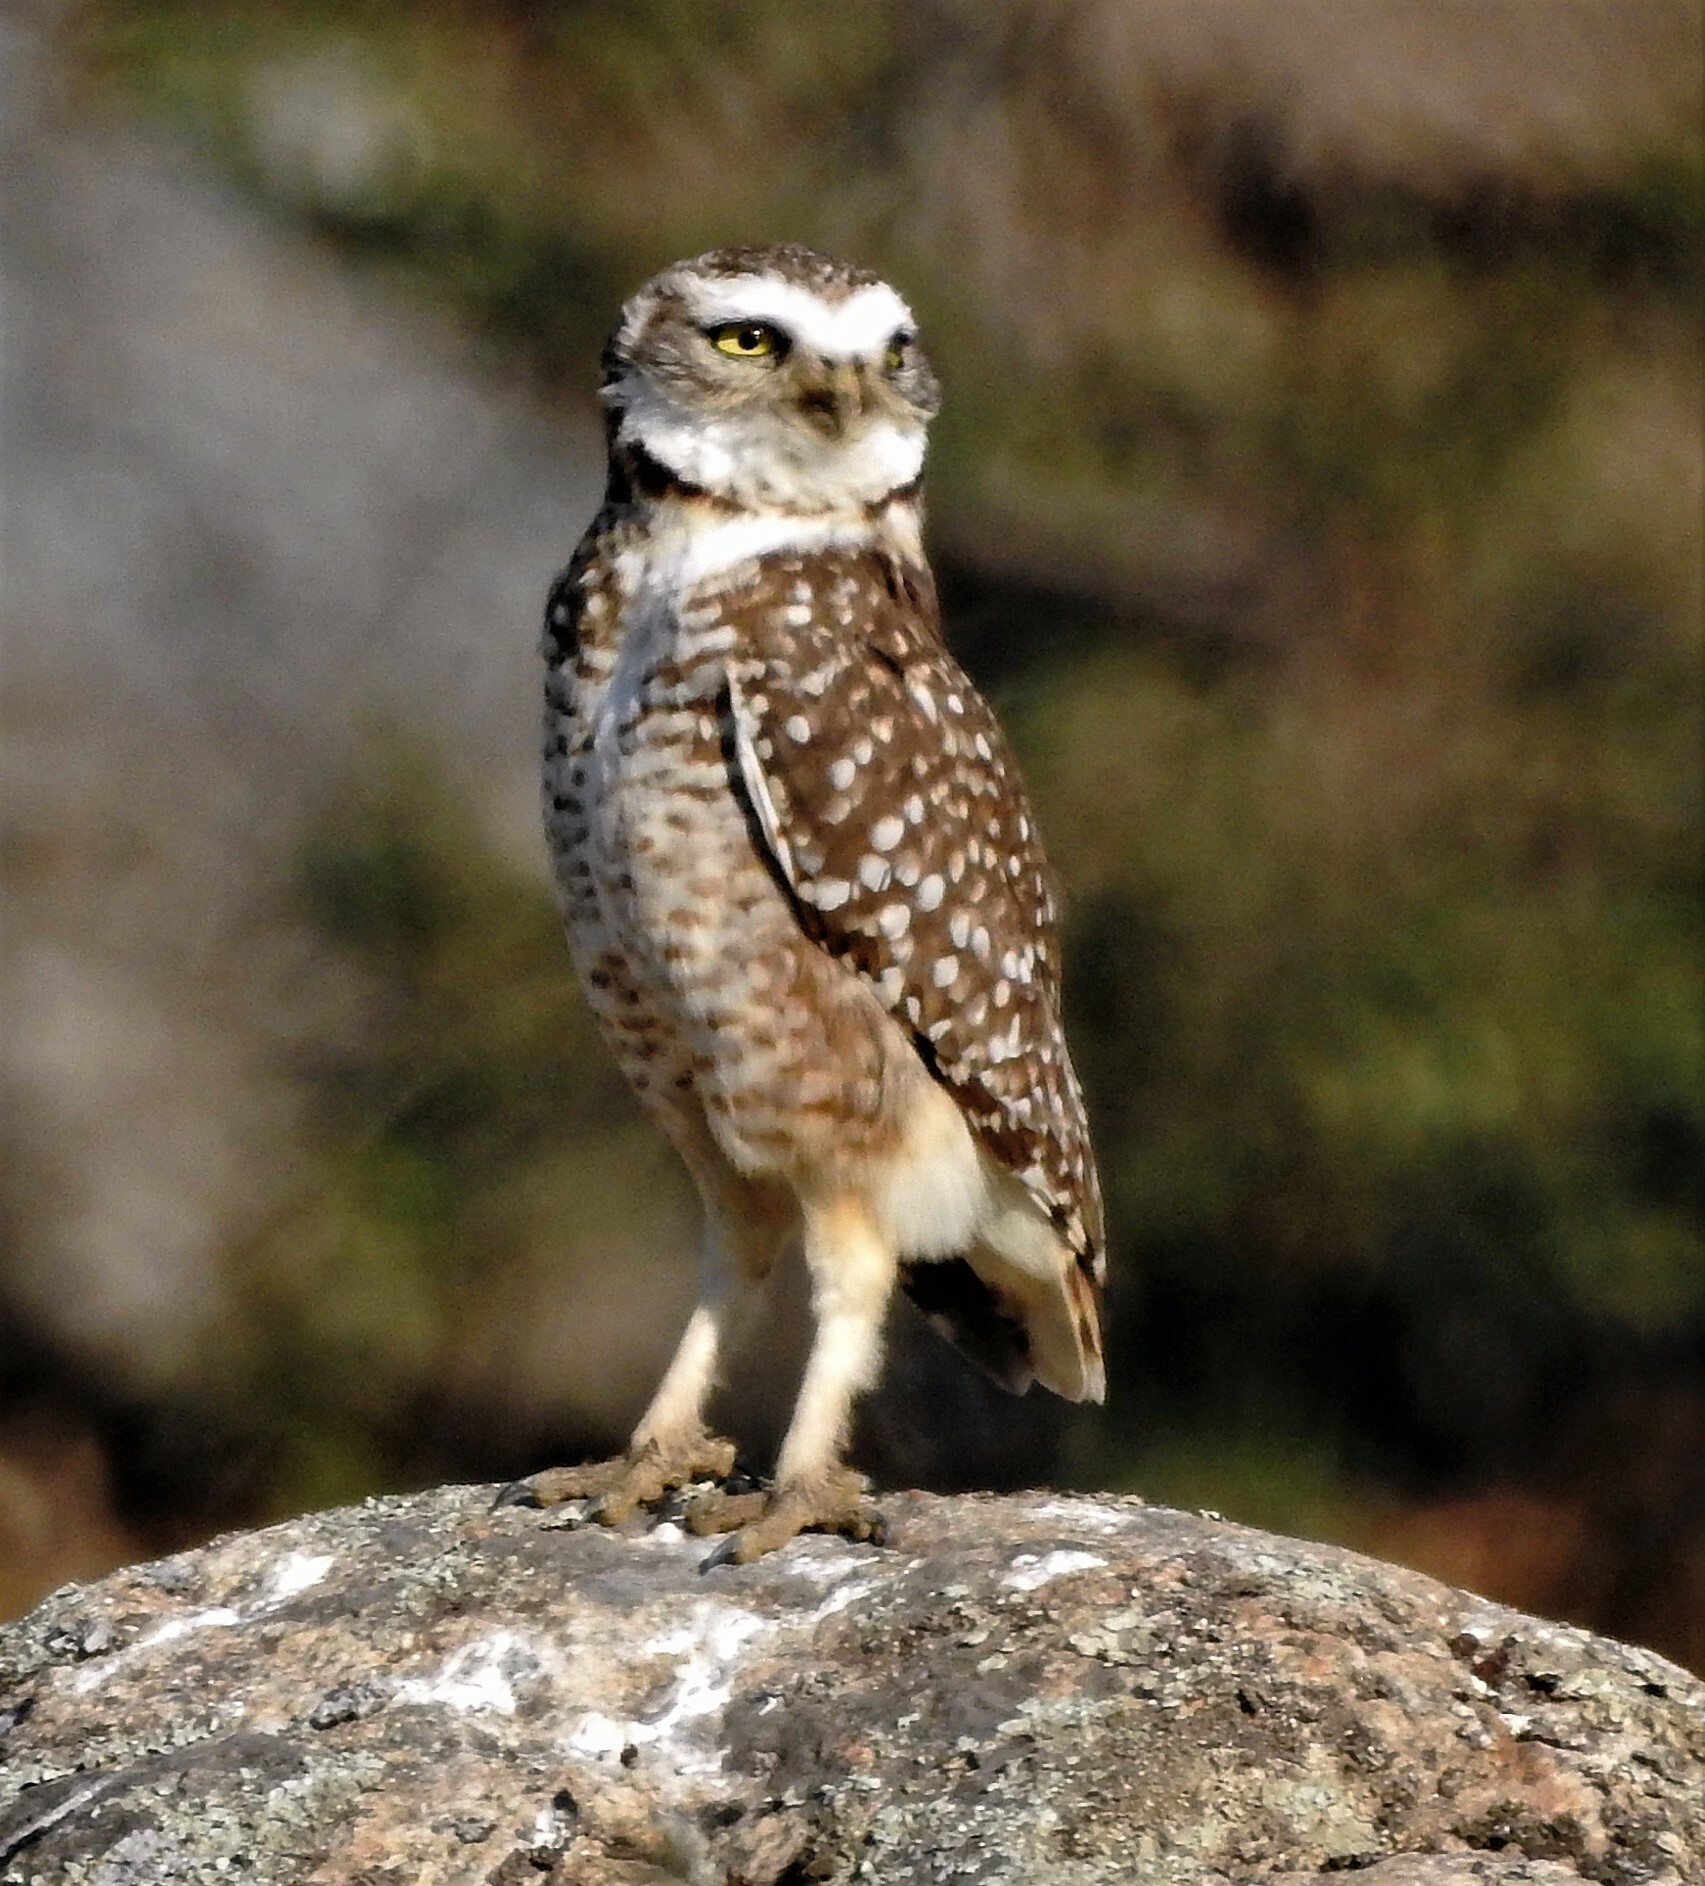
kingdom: Animalia
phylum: Chordata
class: Aves
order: Strigiformes
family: Strigidae
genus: Athene
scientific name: Athene cunicularia
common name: Burrowing owl
